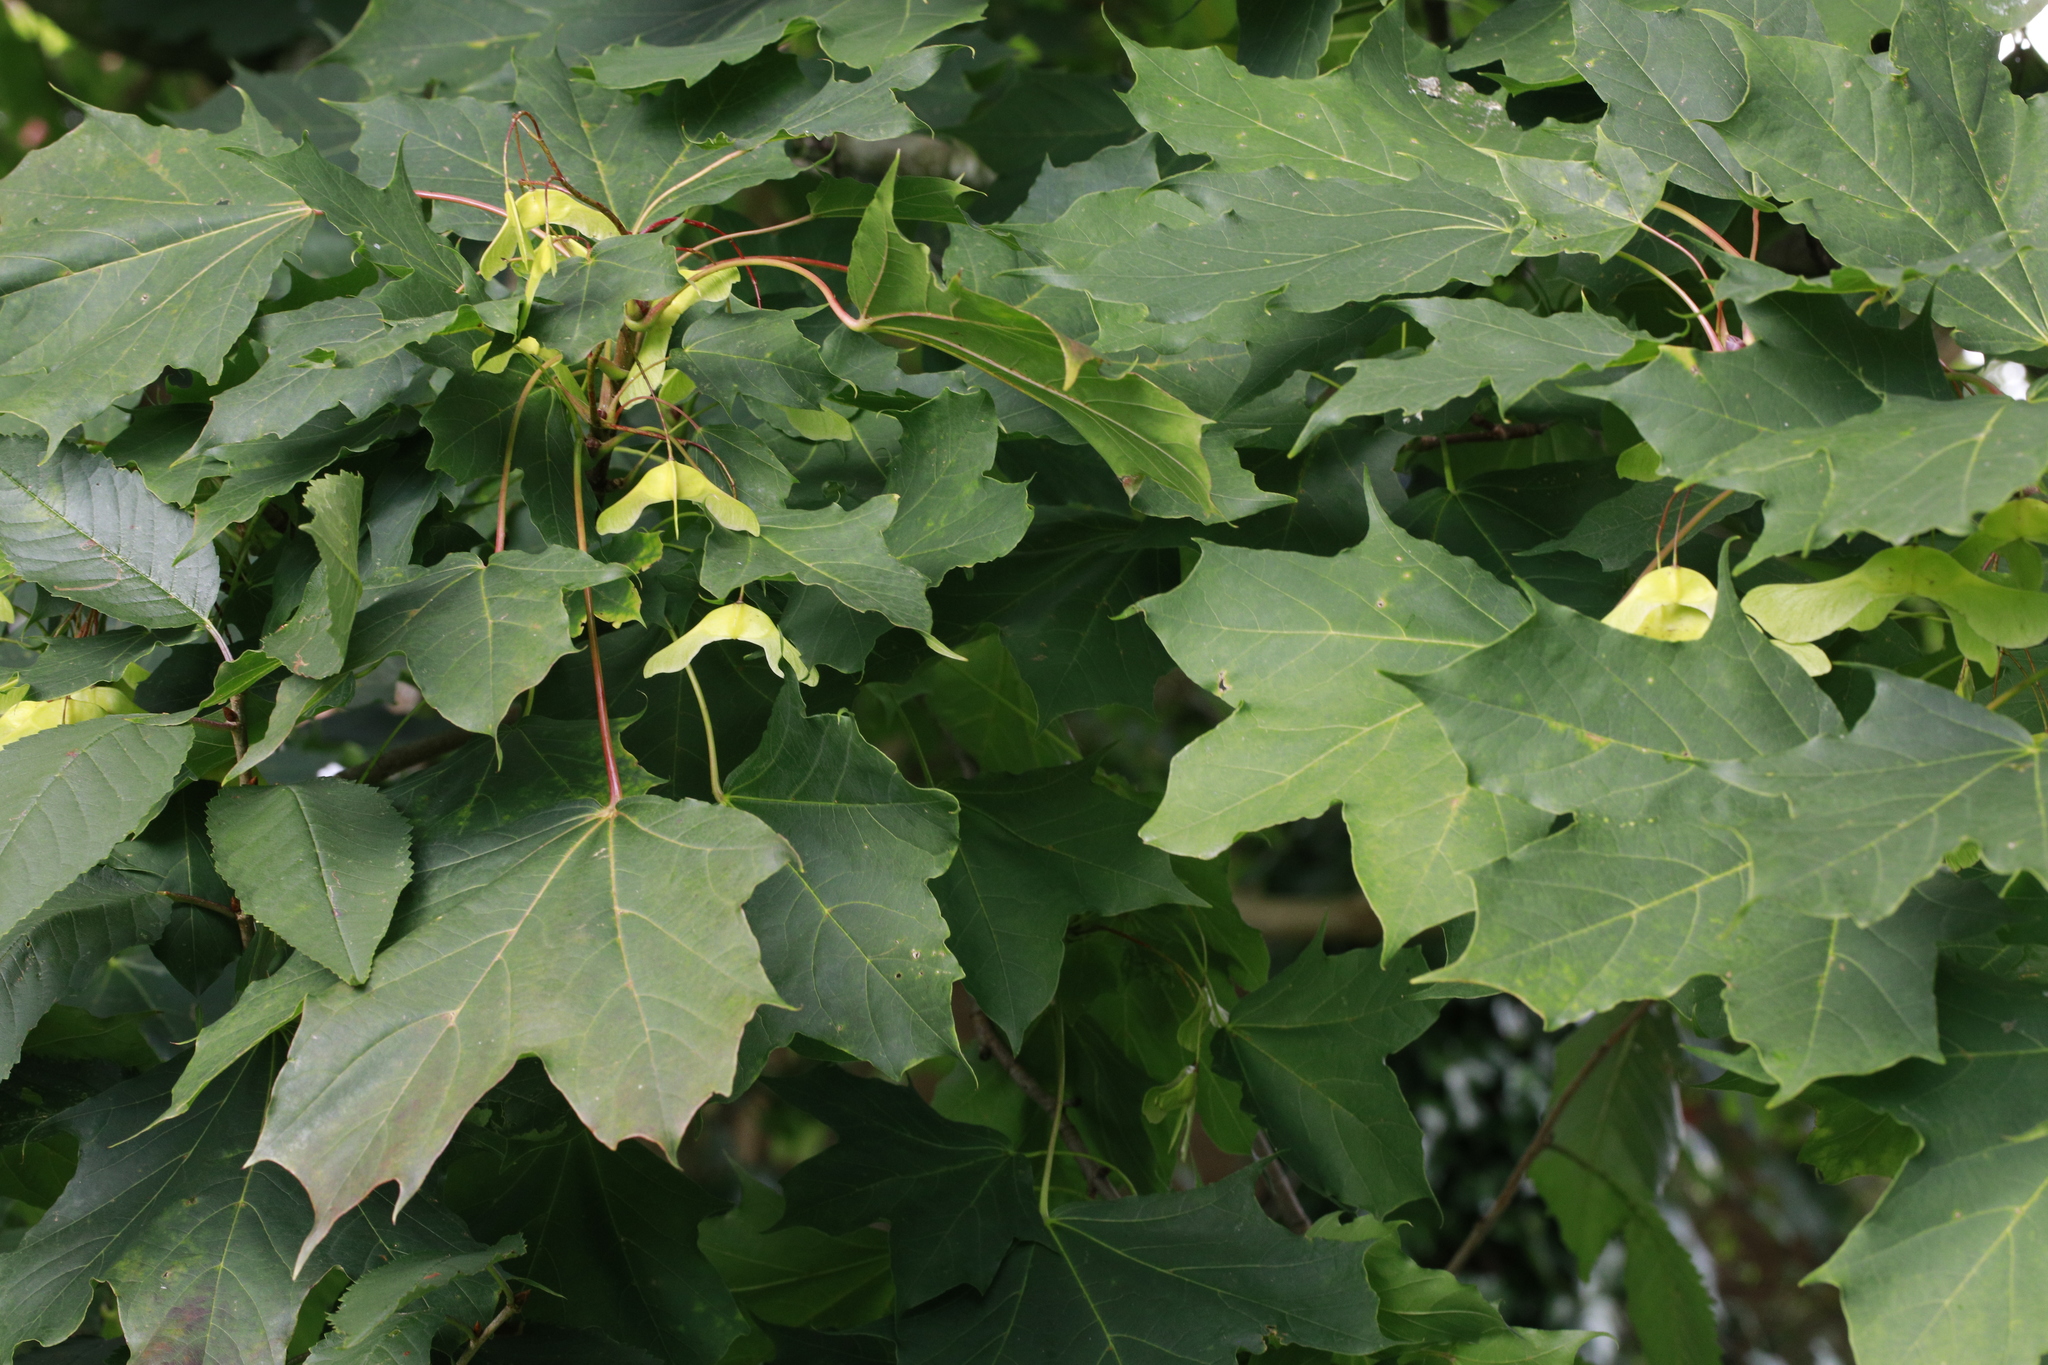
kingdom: Plantae
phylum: Tracheophyta
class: Magnoliopsida
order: Sapindales
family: Sapindaceae
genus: Acer
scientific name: Acer platanoides
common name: Norway maple
